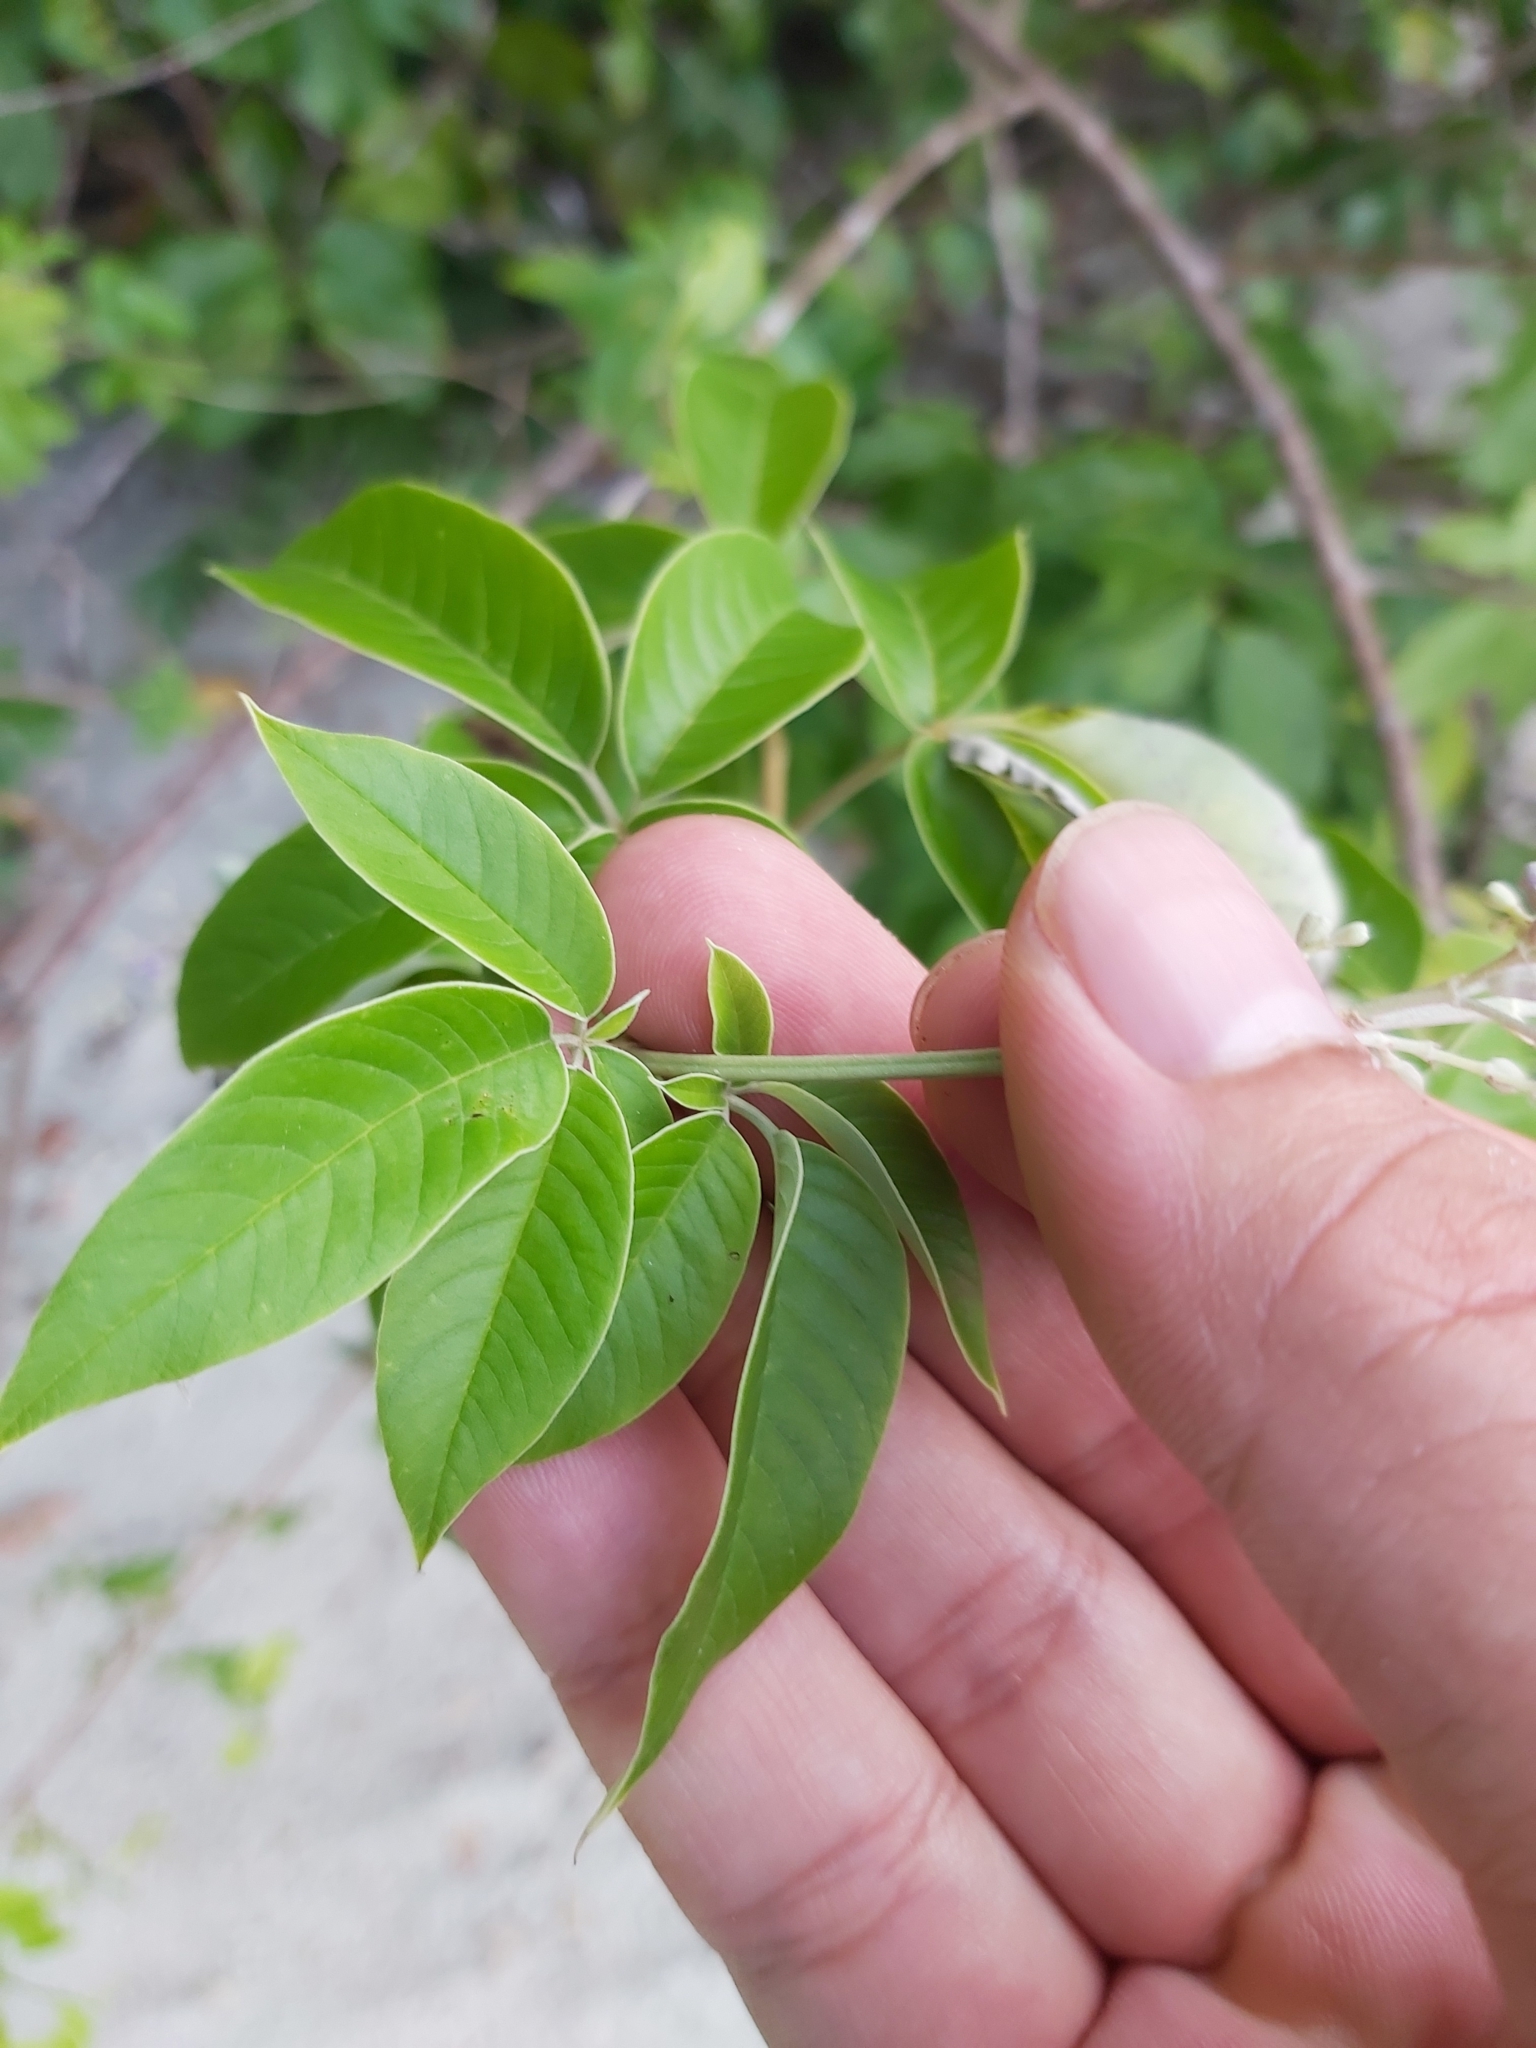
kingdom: Plantae
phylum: Tracheophyta
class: Magnoliopsida
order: Lamiales
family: Lamiaceae
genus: Vitex
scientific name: Vitex trifolia
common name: Simpleleaf chastetree
